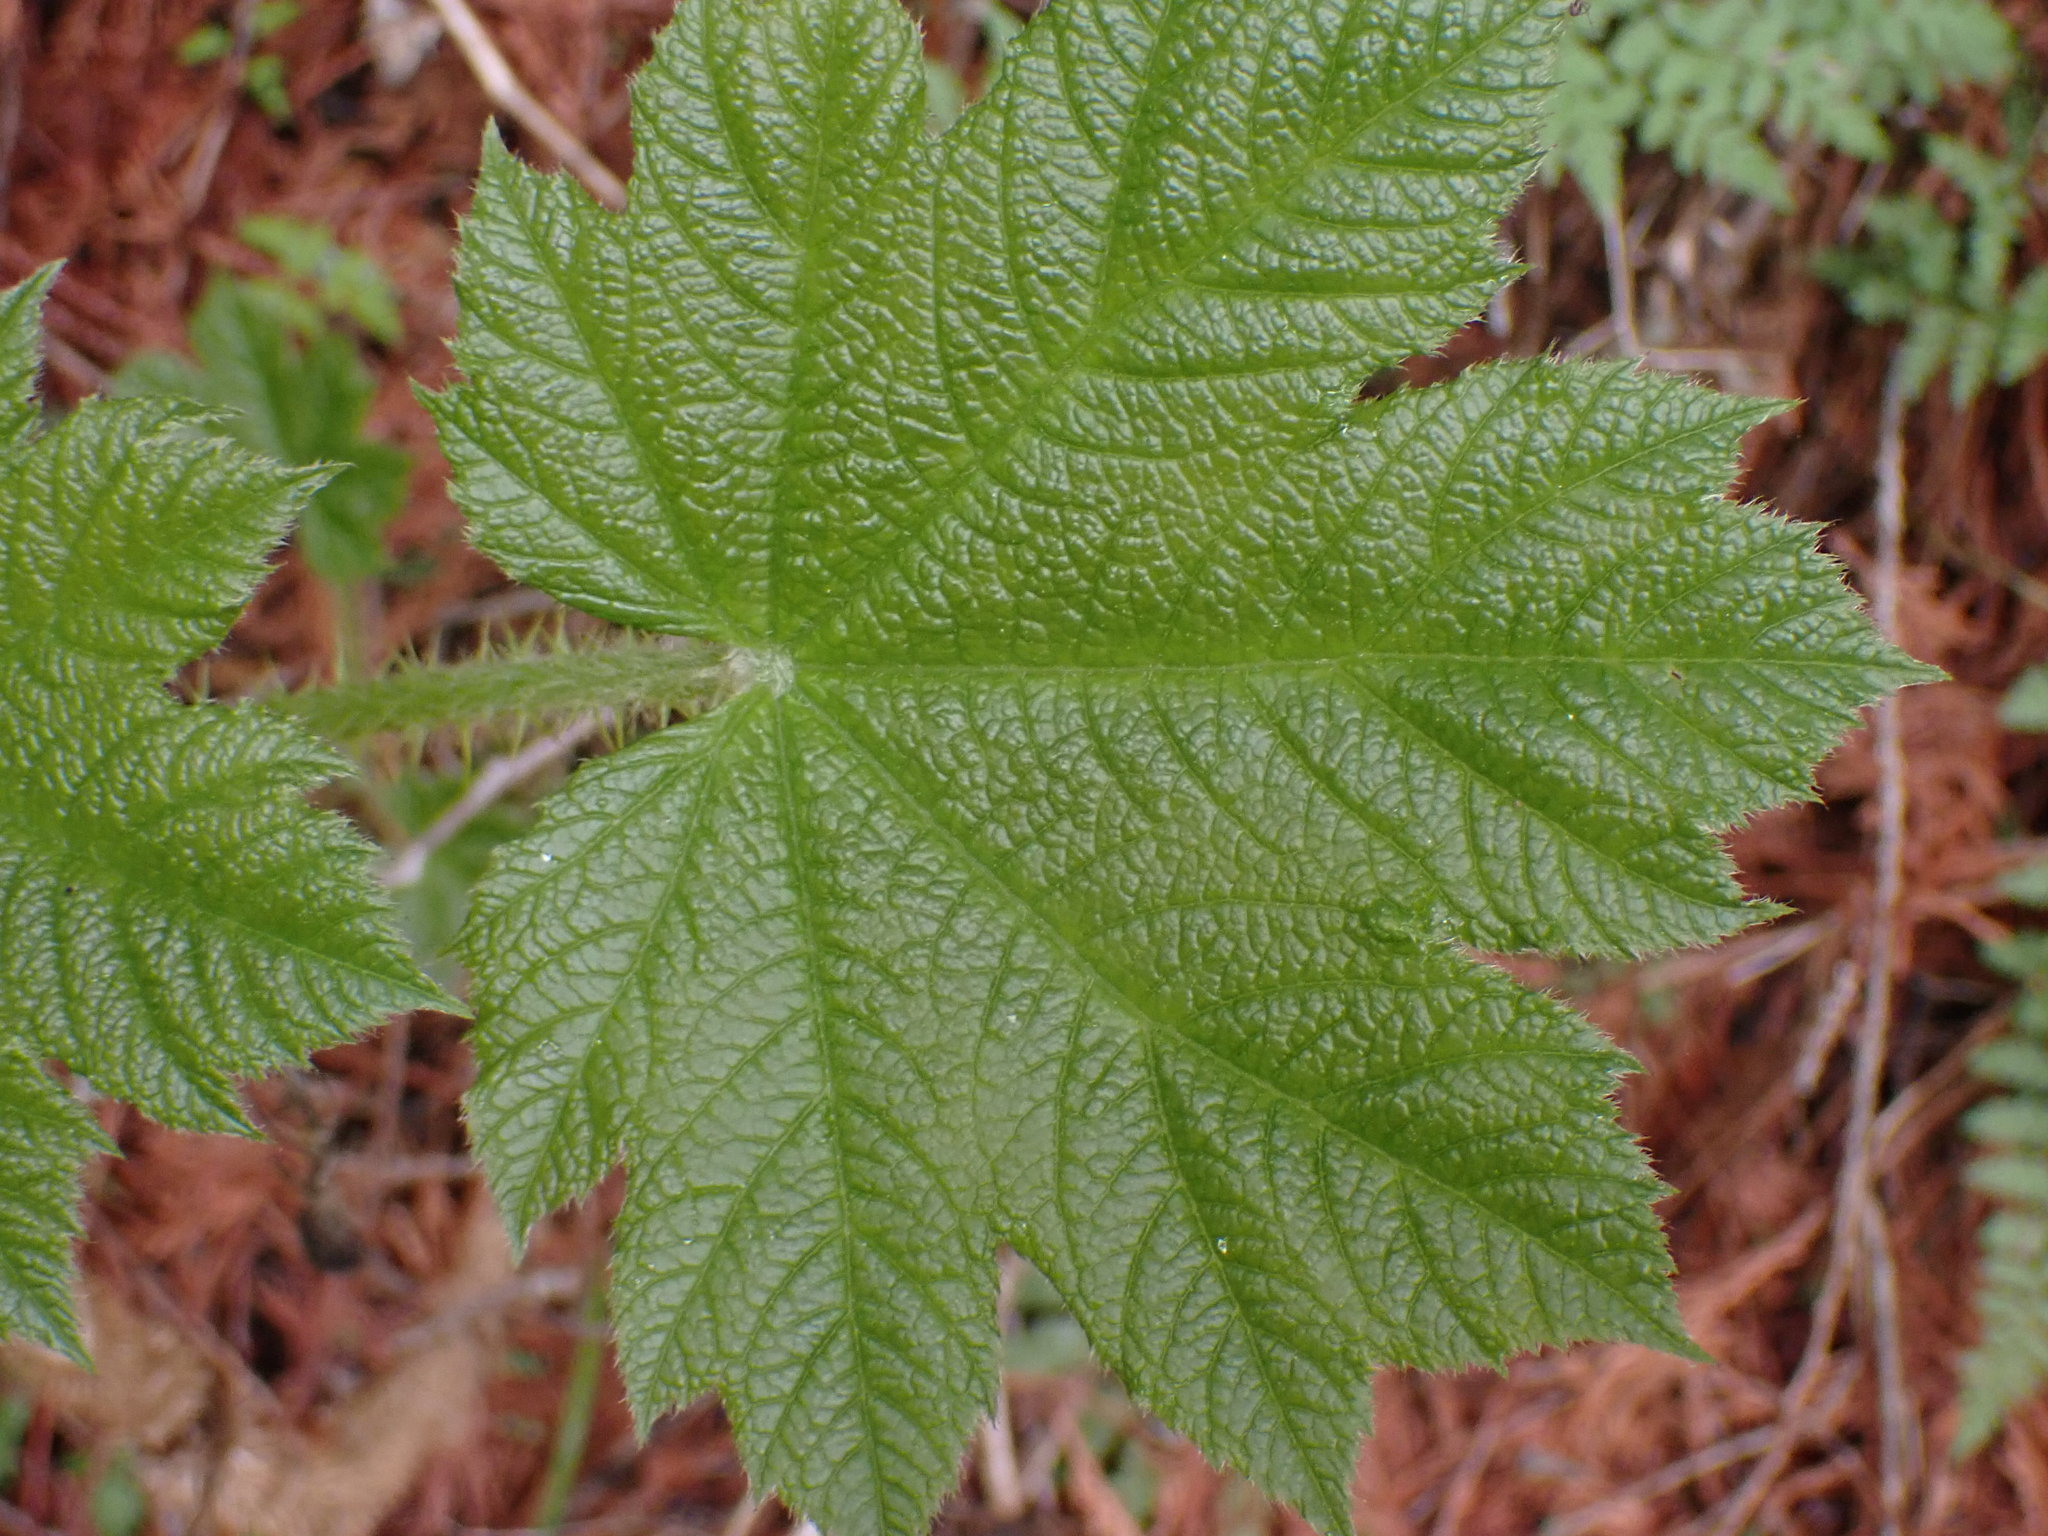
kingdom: Plantae
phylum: Tracheophyta
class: Magnoliopsida
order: Apiales
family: Araliaceae
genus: Oplopanax
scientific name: Oplopanax horridus
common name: Devil's walking-stick
